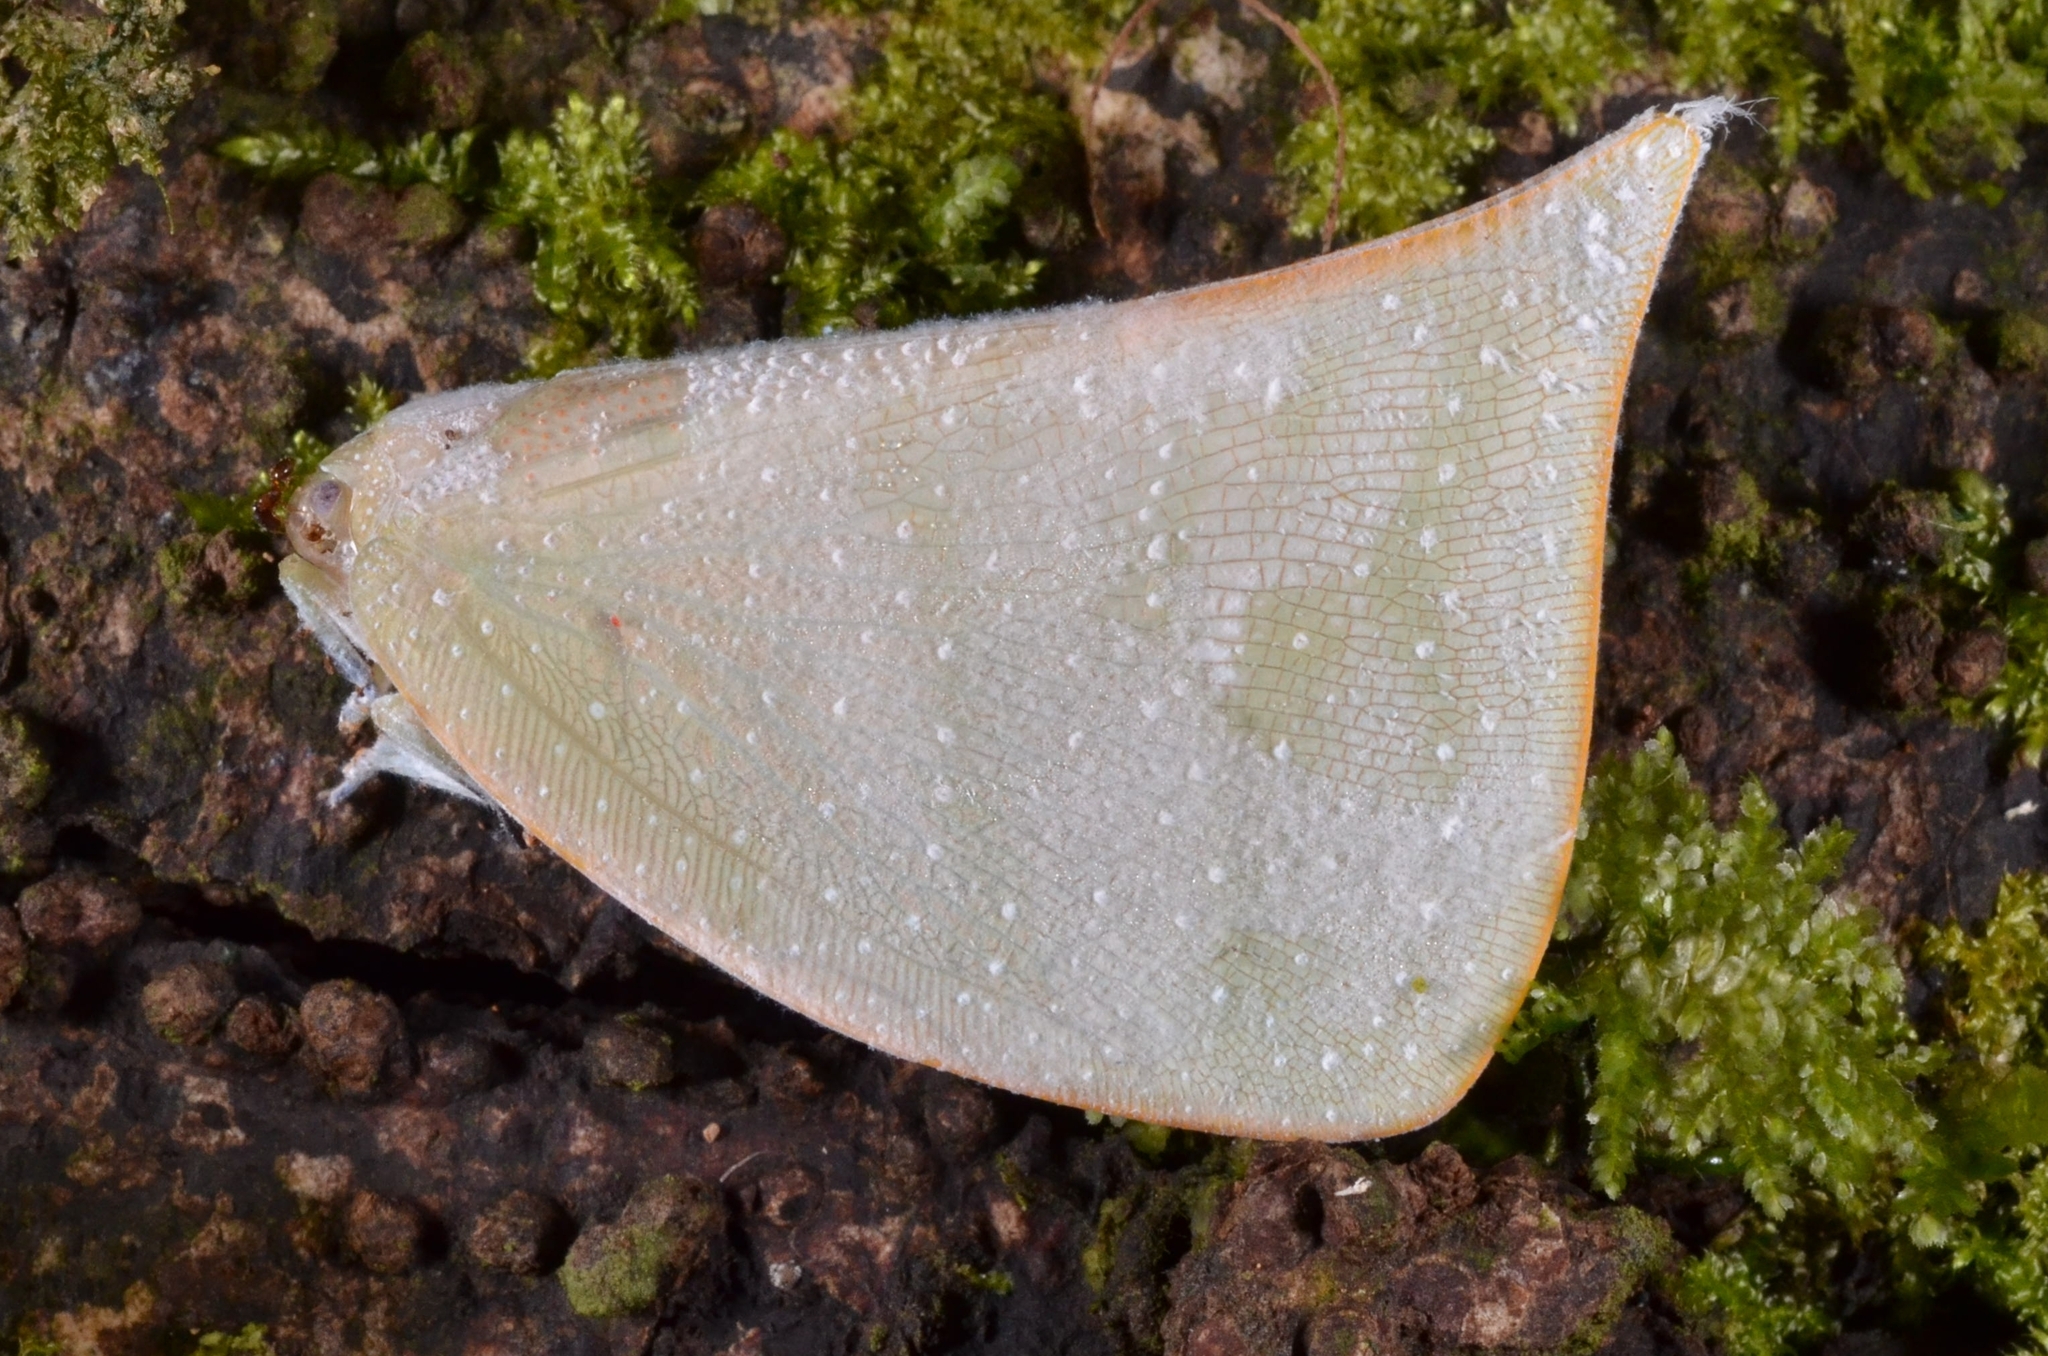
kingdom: Animalia
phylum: Arthropoda
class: Insecta
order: Hemiptera
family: Flatidae
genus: Colobesthes
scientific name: Colobesthes falcata
